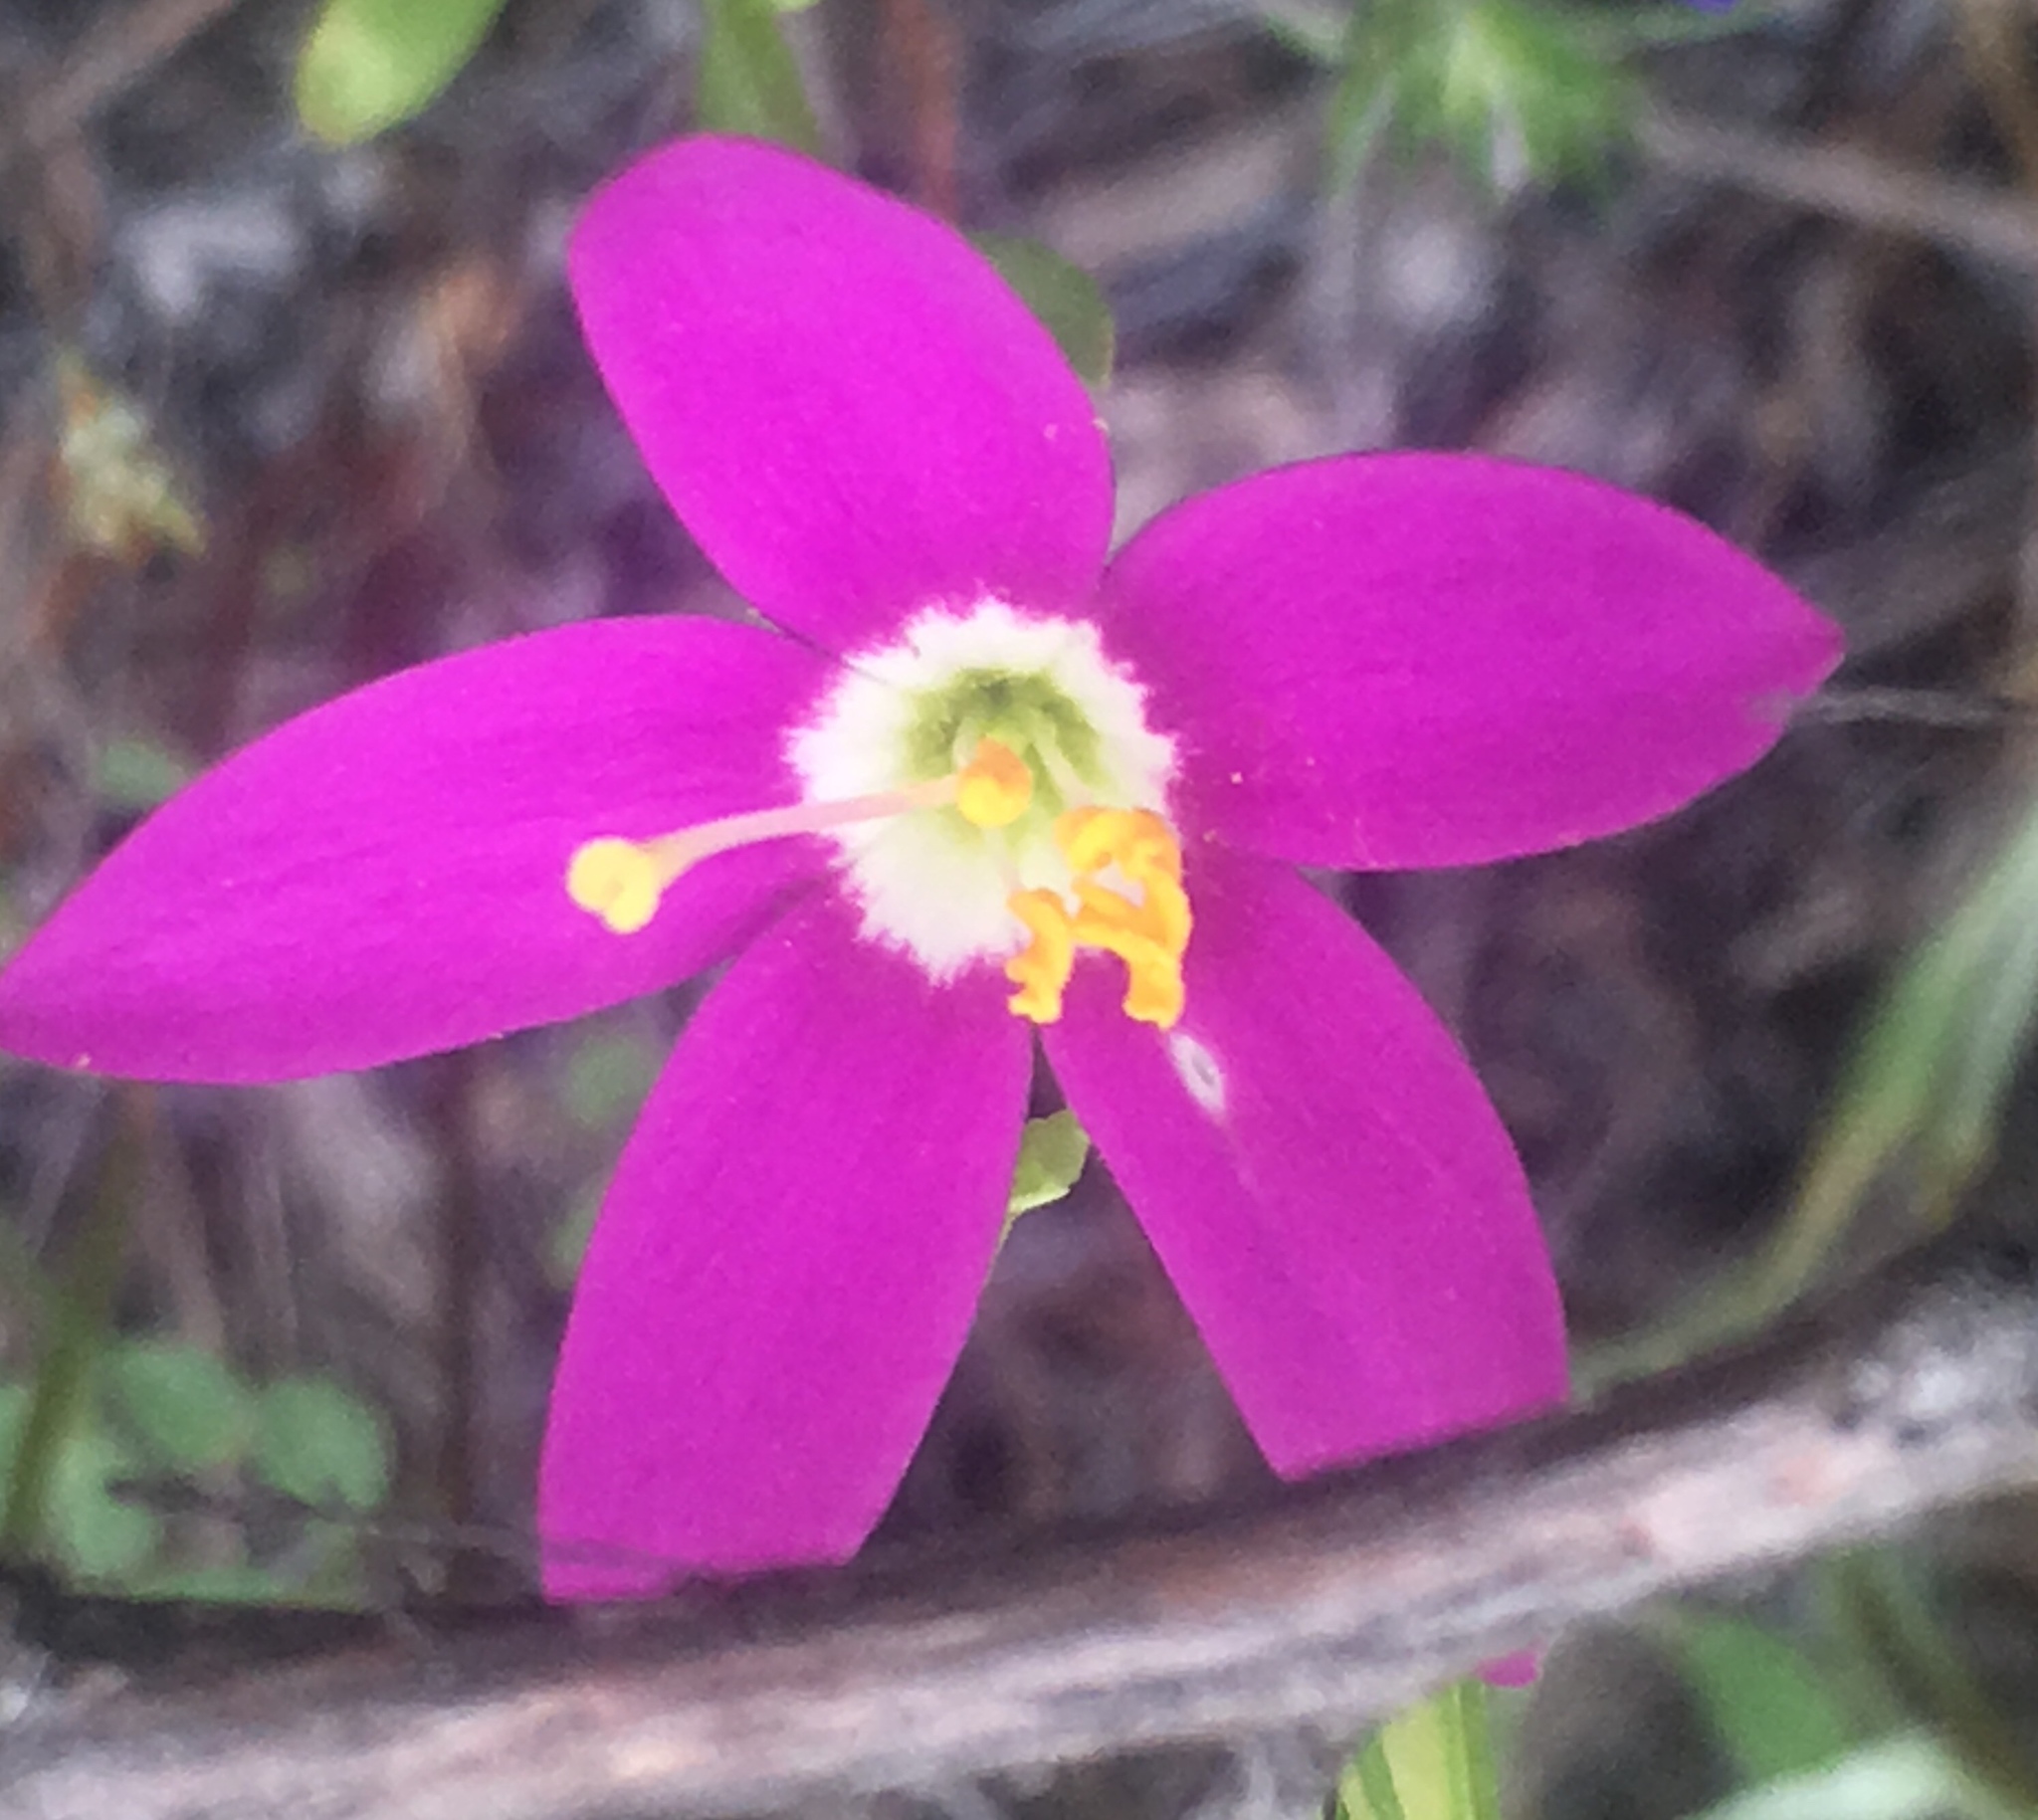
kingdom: Plantae
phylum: Tracheophyta
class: Magnoliopsida
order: Gentianales
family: Gentianaceae
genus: Zeltnera
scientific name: Zeltnera venusta
